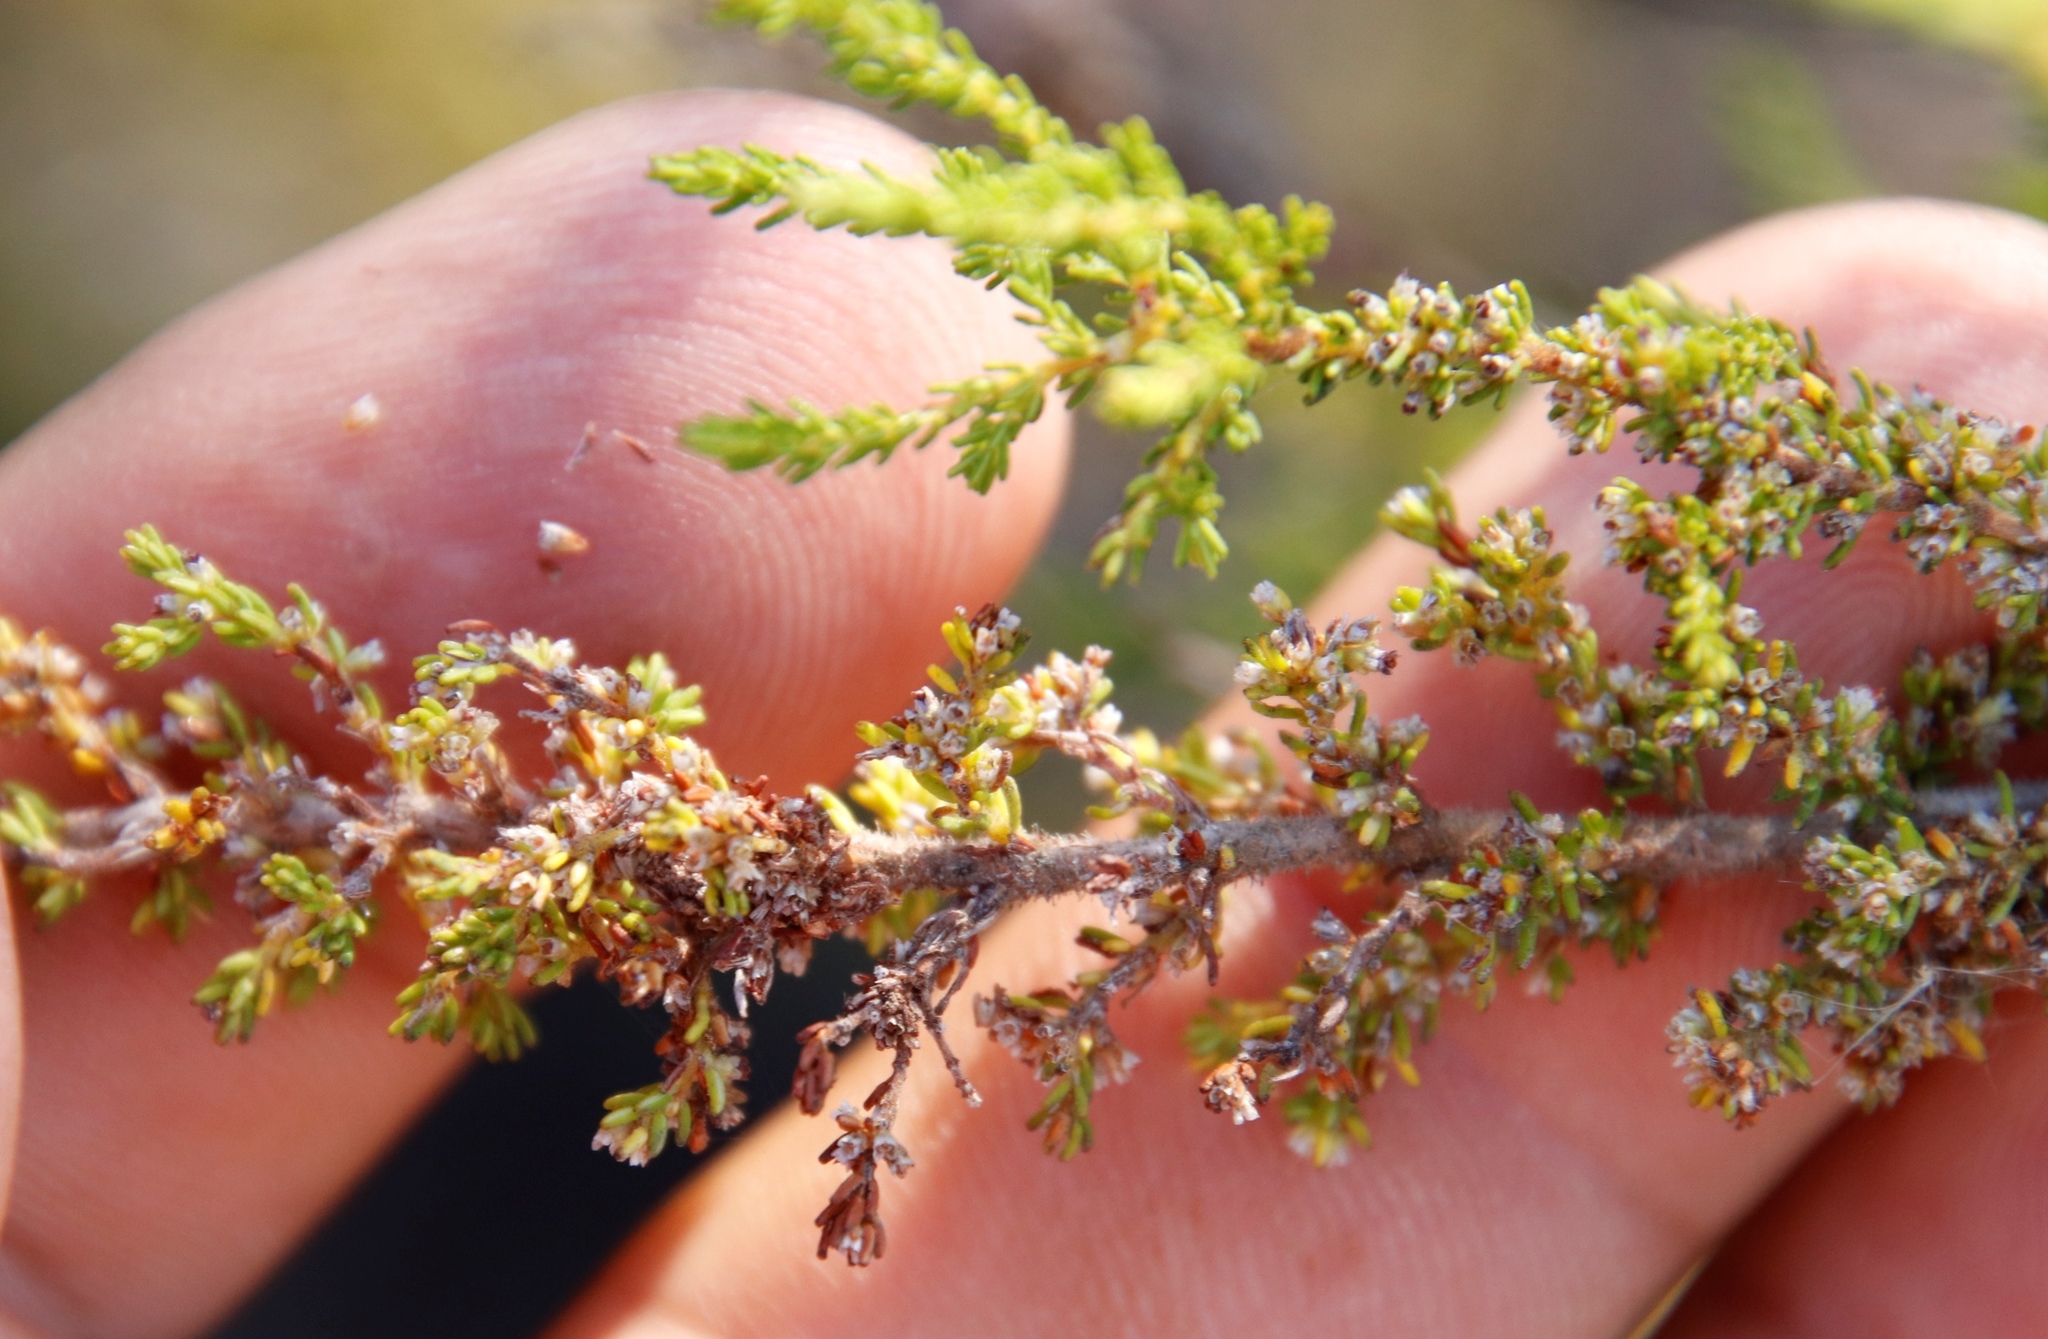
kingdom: Plantae
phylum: Tracheophyta
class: Magnoliopsida
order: Ericales
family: Ericaceae
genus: Erica
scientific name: Erica muscosa
